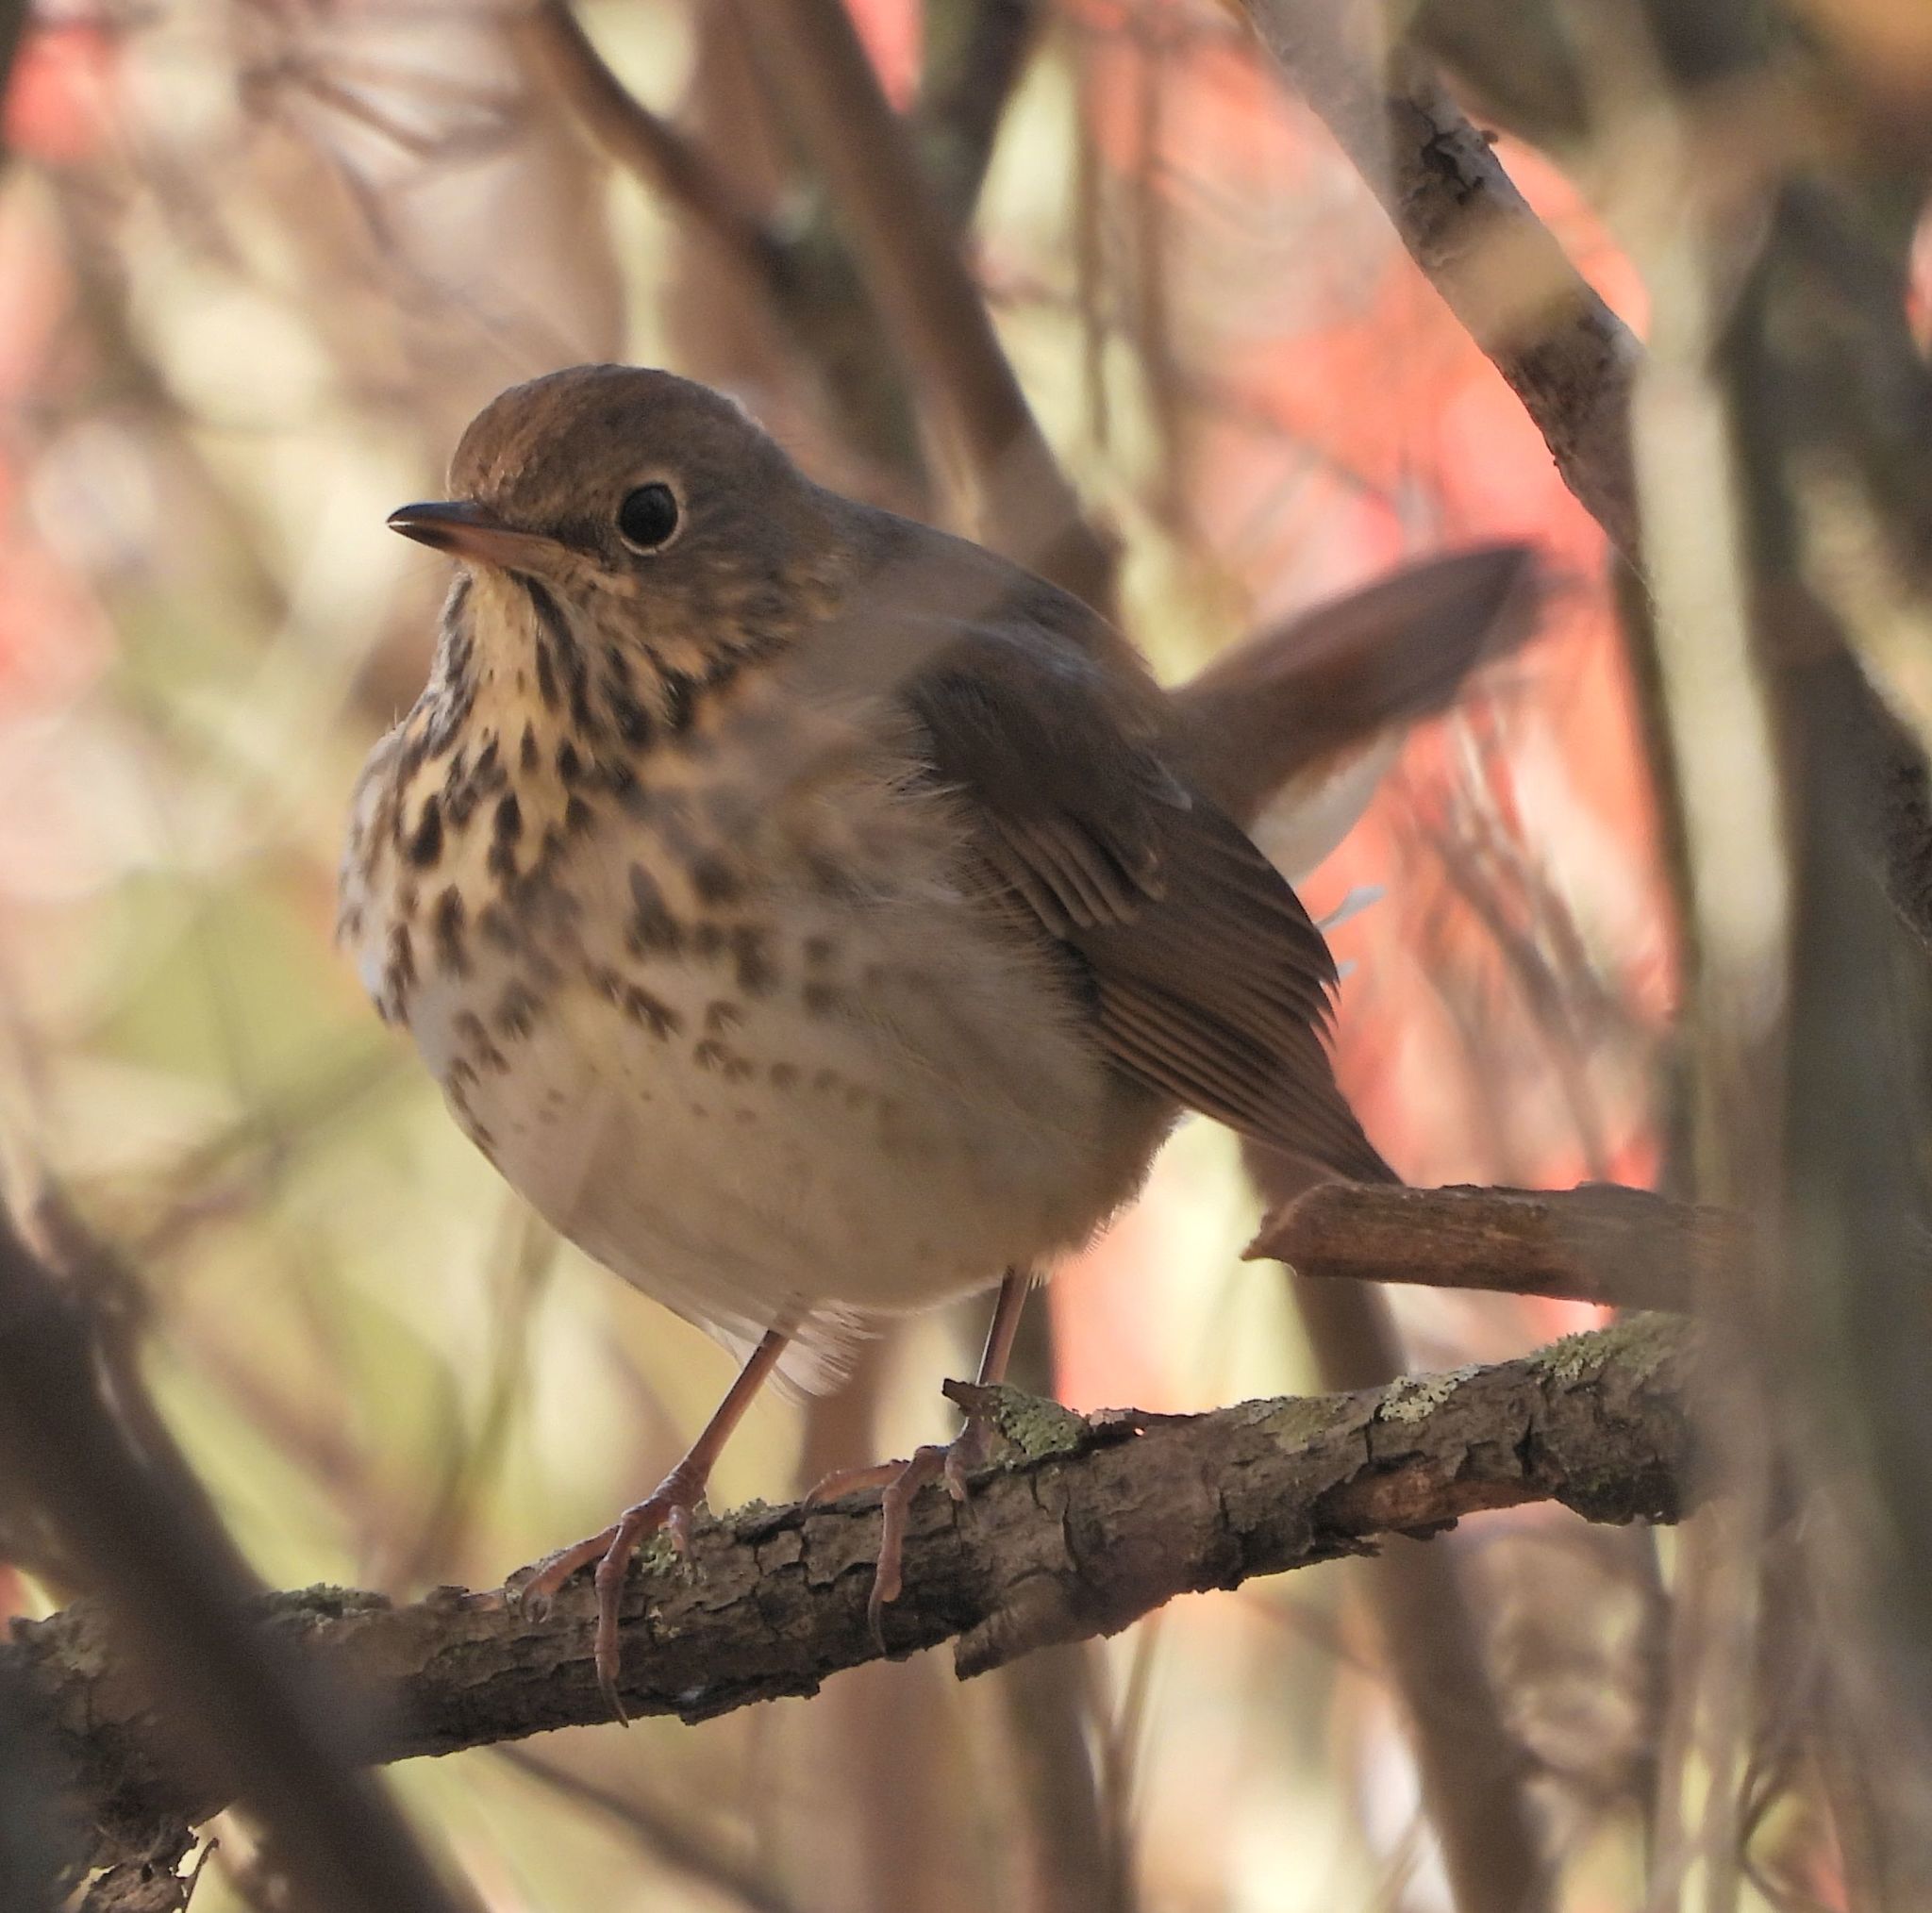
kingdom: Animalia
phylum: Chordata
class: Aves
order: Passeriformes
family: Turdidae
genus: Catharus
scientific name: Catharus guttatus
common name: Hermit thrush
